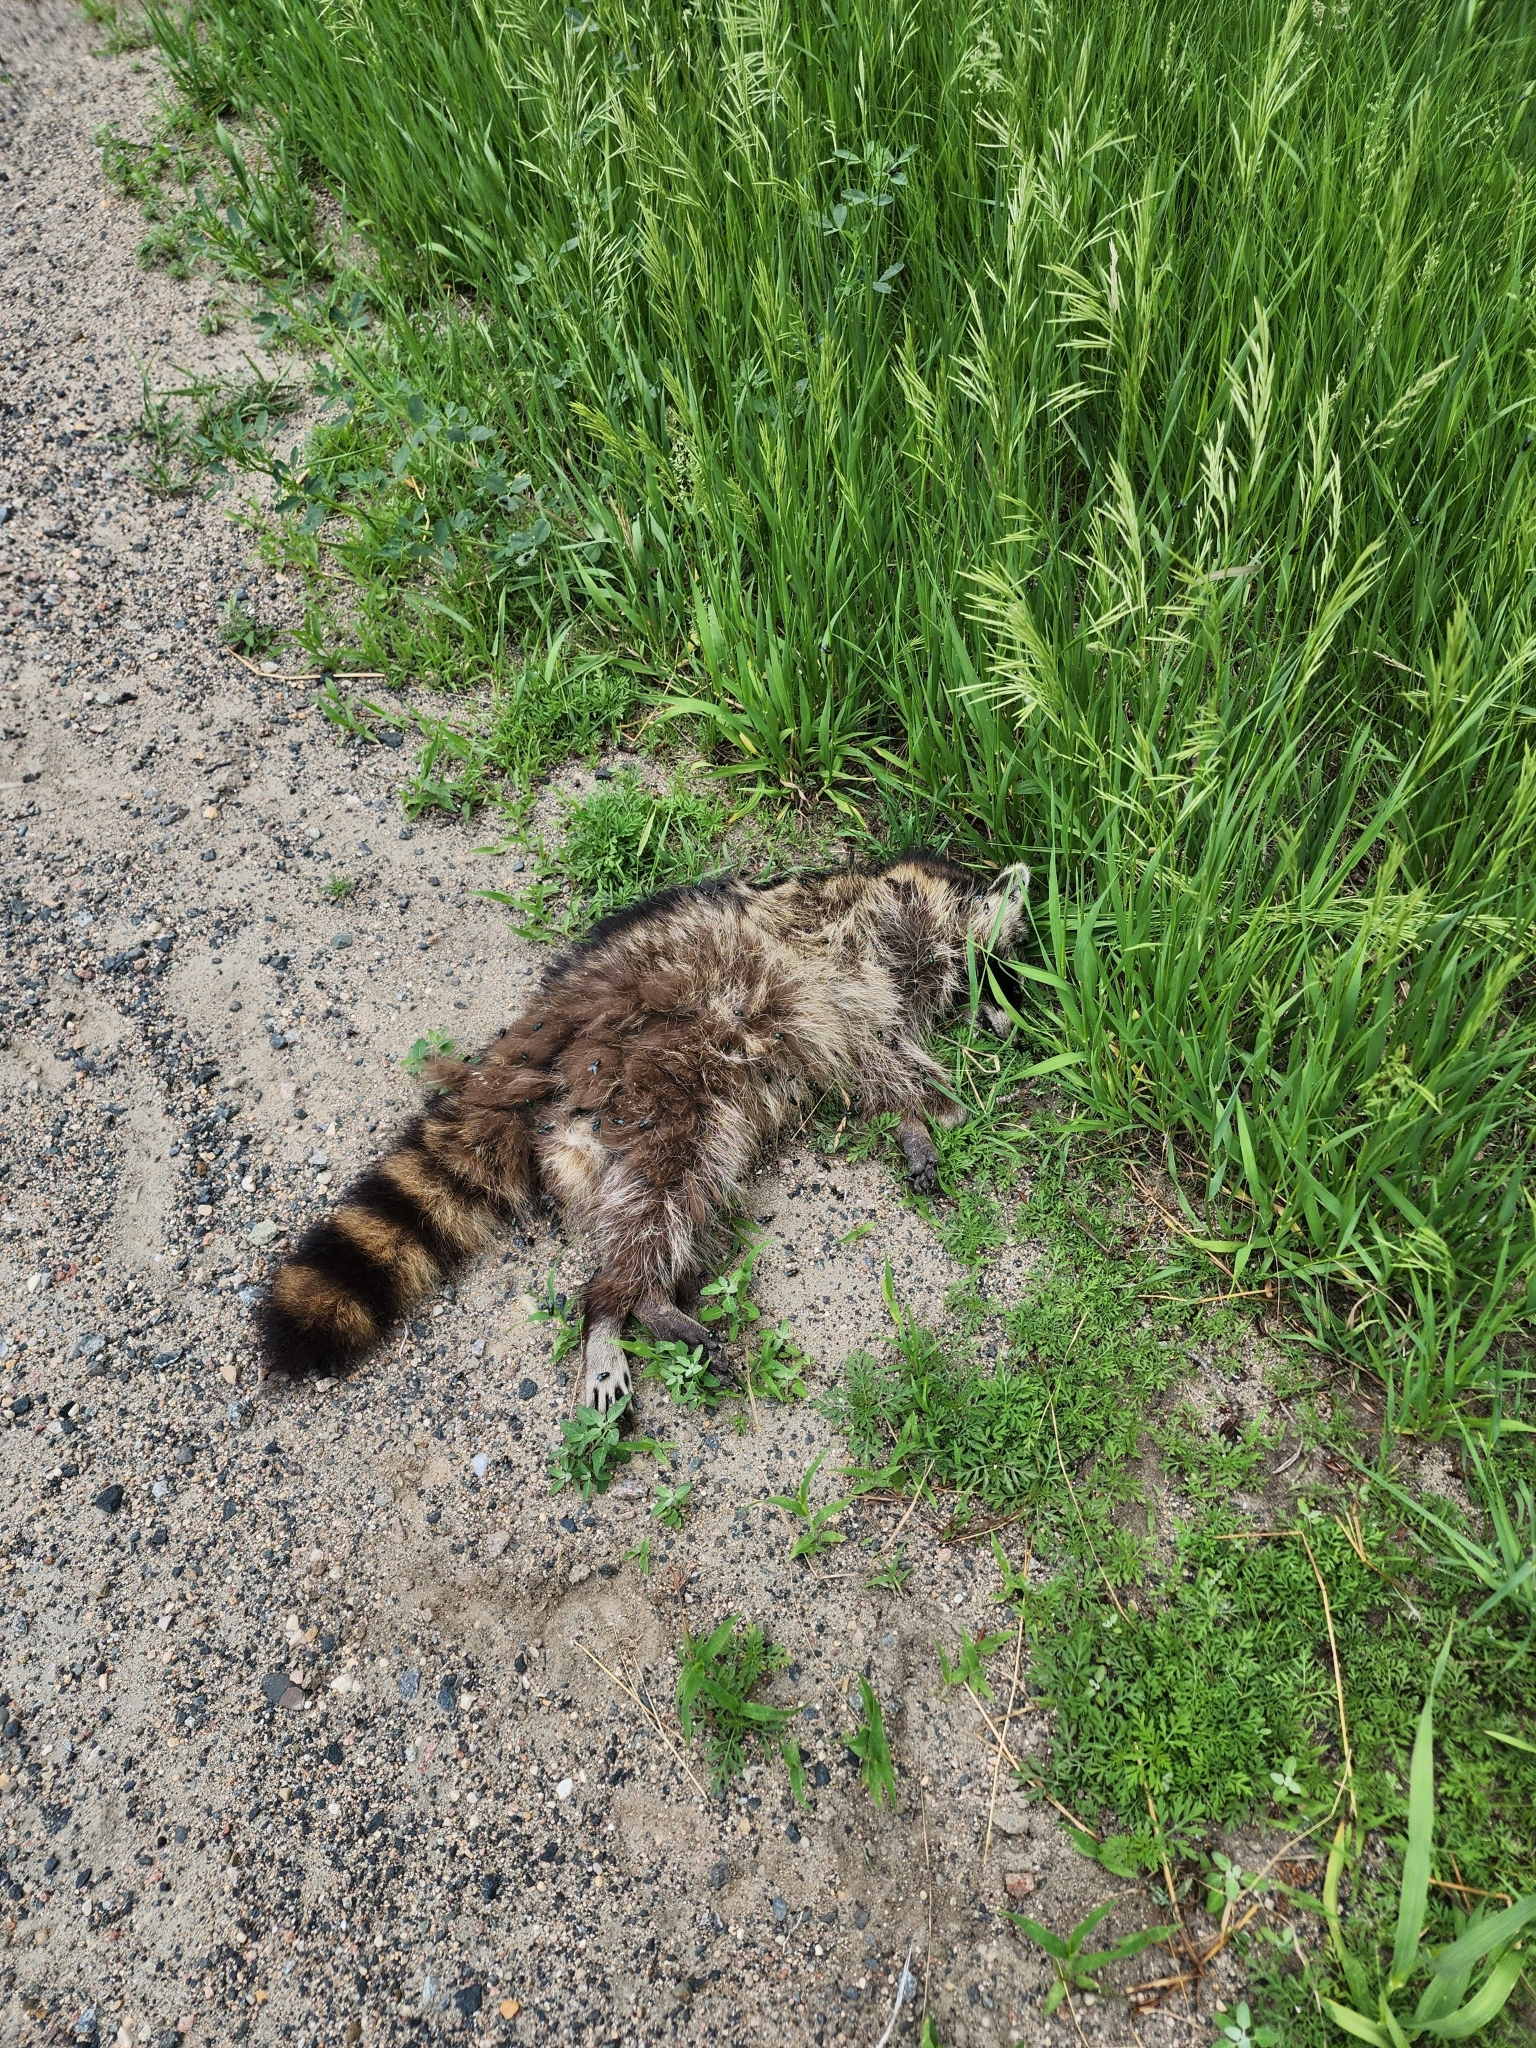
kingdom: Animalia
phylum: Chordata
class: Mammalia
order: Carnivora
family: Procyonidae
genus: Procyon
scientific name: Procyon lotor
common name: Raccoon
